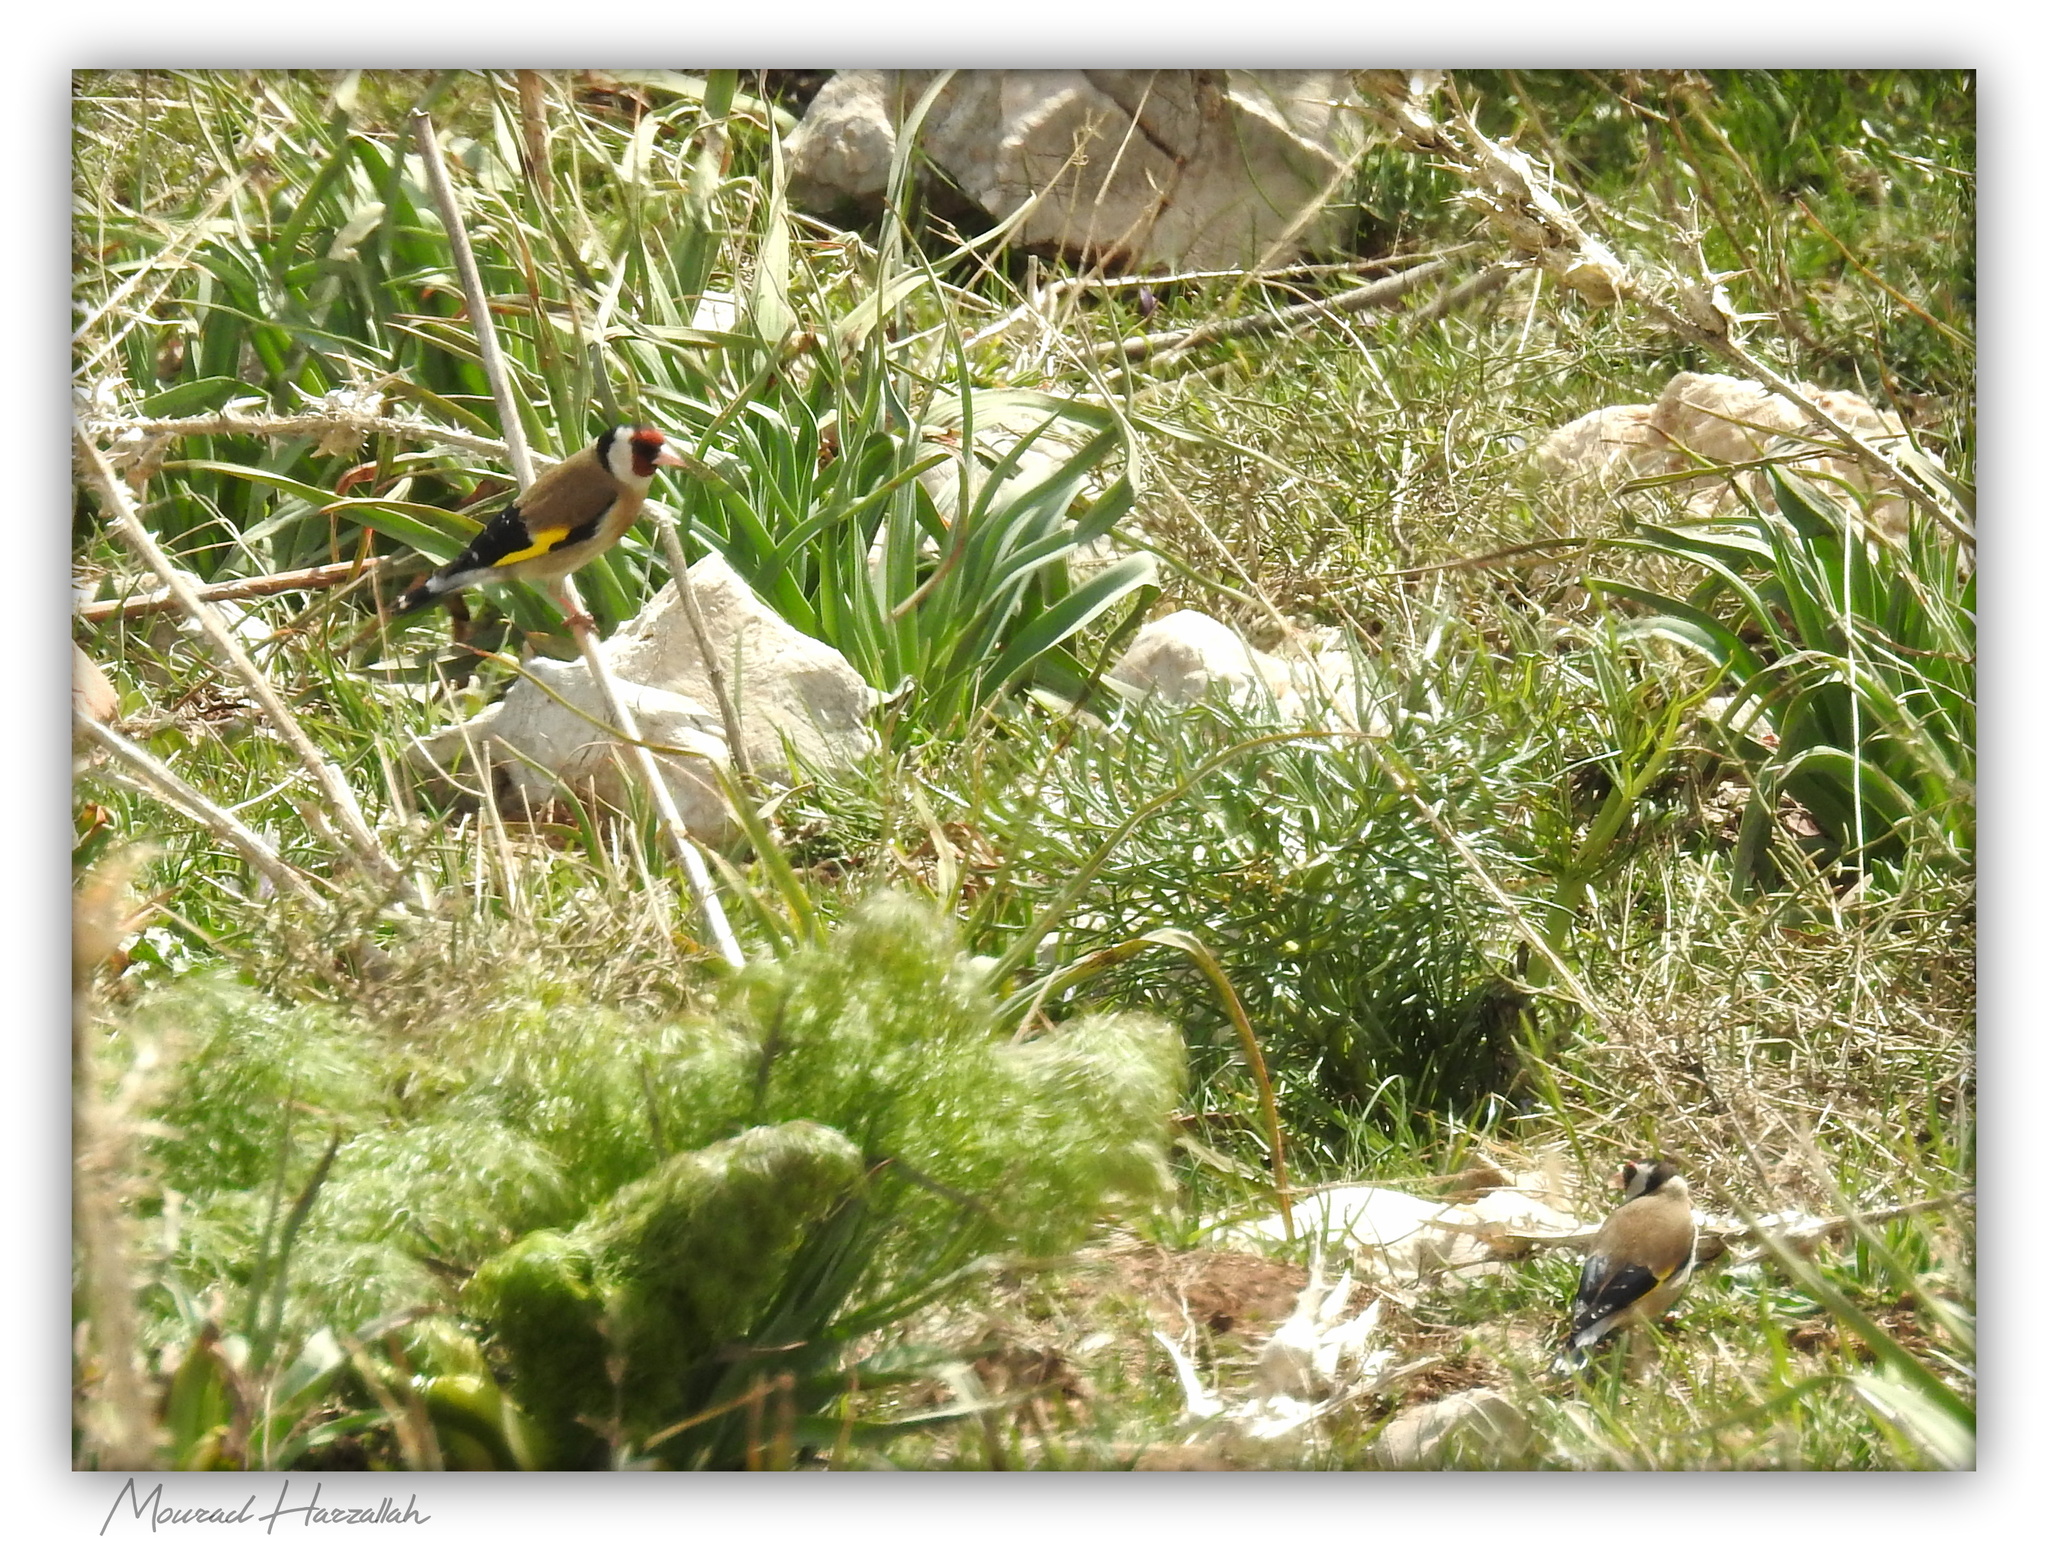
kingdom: Animalia
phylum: Chordata
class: Aves
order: Passeriformes
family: Fringillidae
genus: Carduelis
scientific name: Carduelis carduelis
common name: European goldfinch
